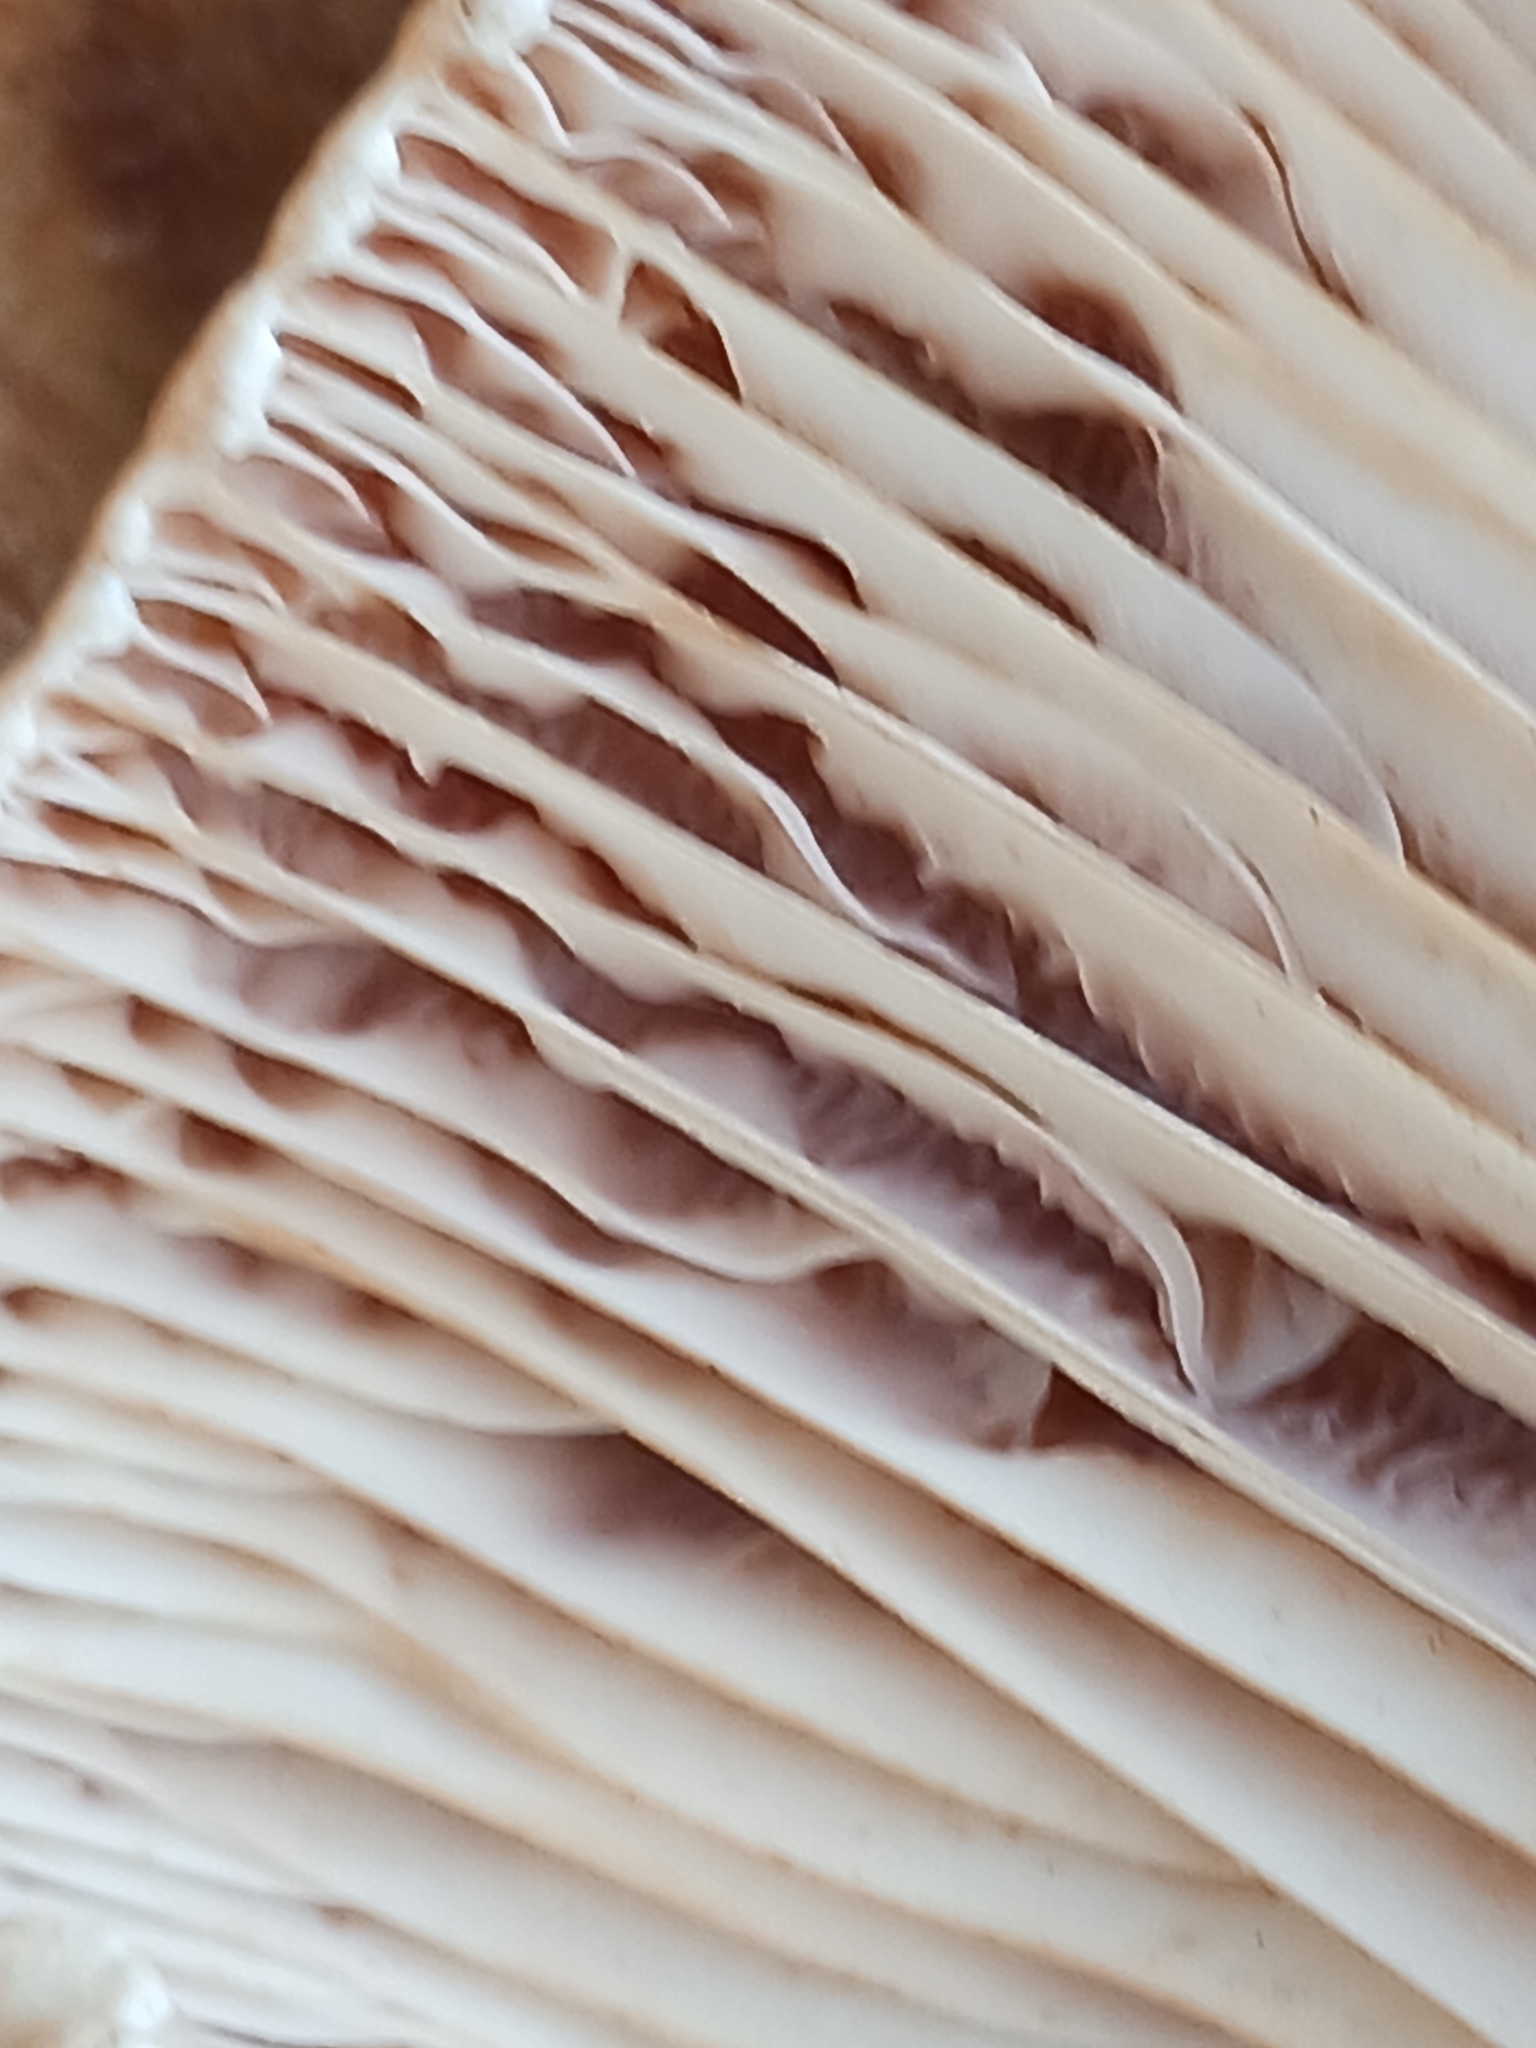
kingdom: Fungi
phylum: Basidiomycota
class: Agaricomycetes
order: Russulales
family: Russulaceae
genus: Lactarius
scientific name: Lactarius acerrimus
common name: Two-spored milkcap
